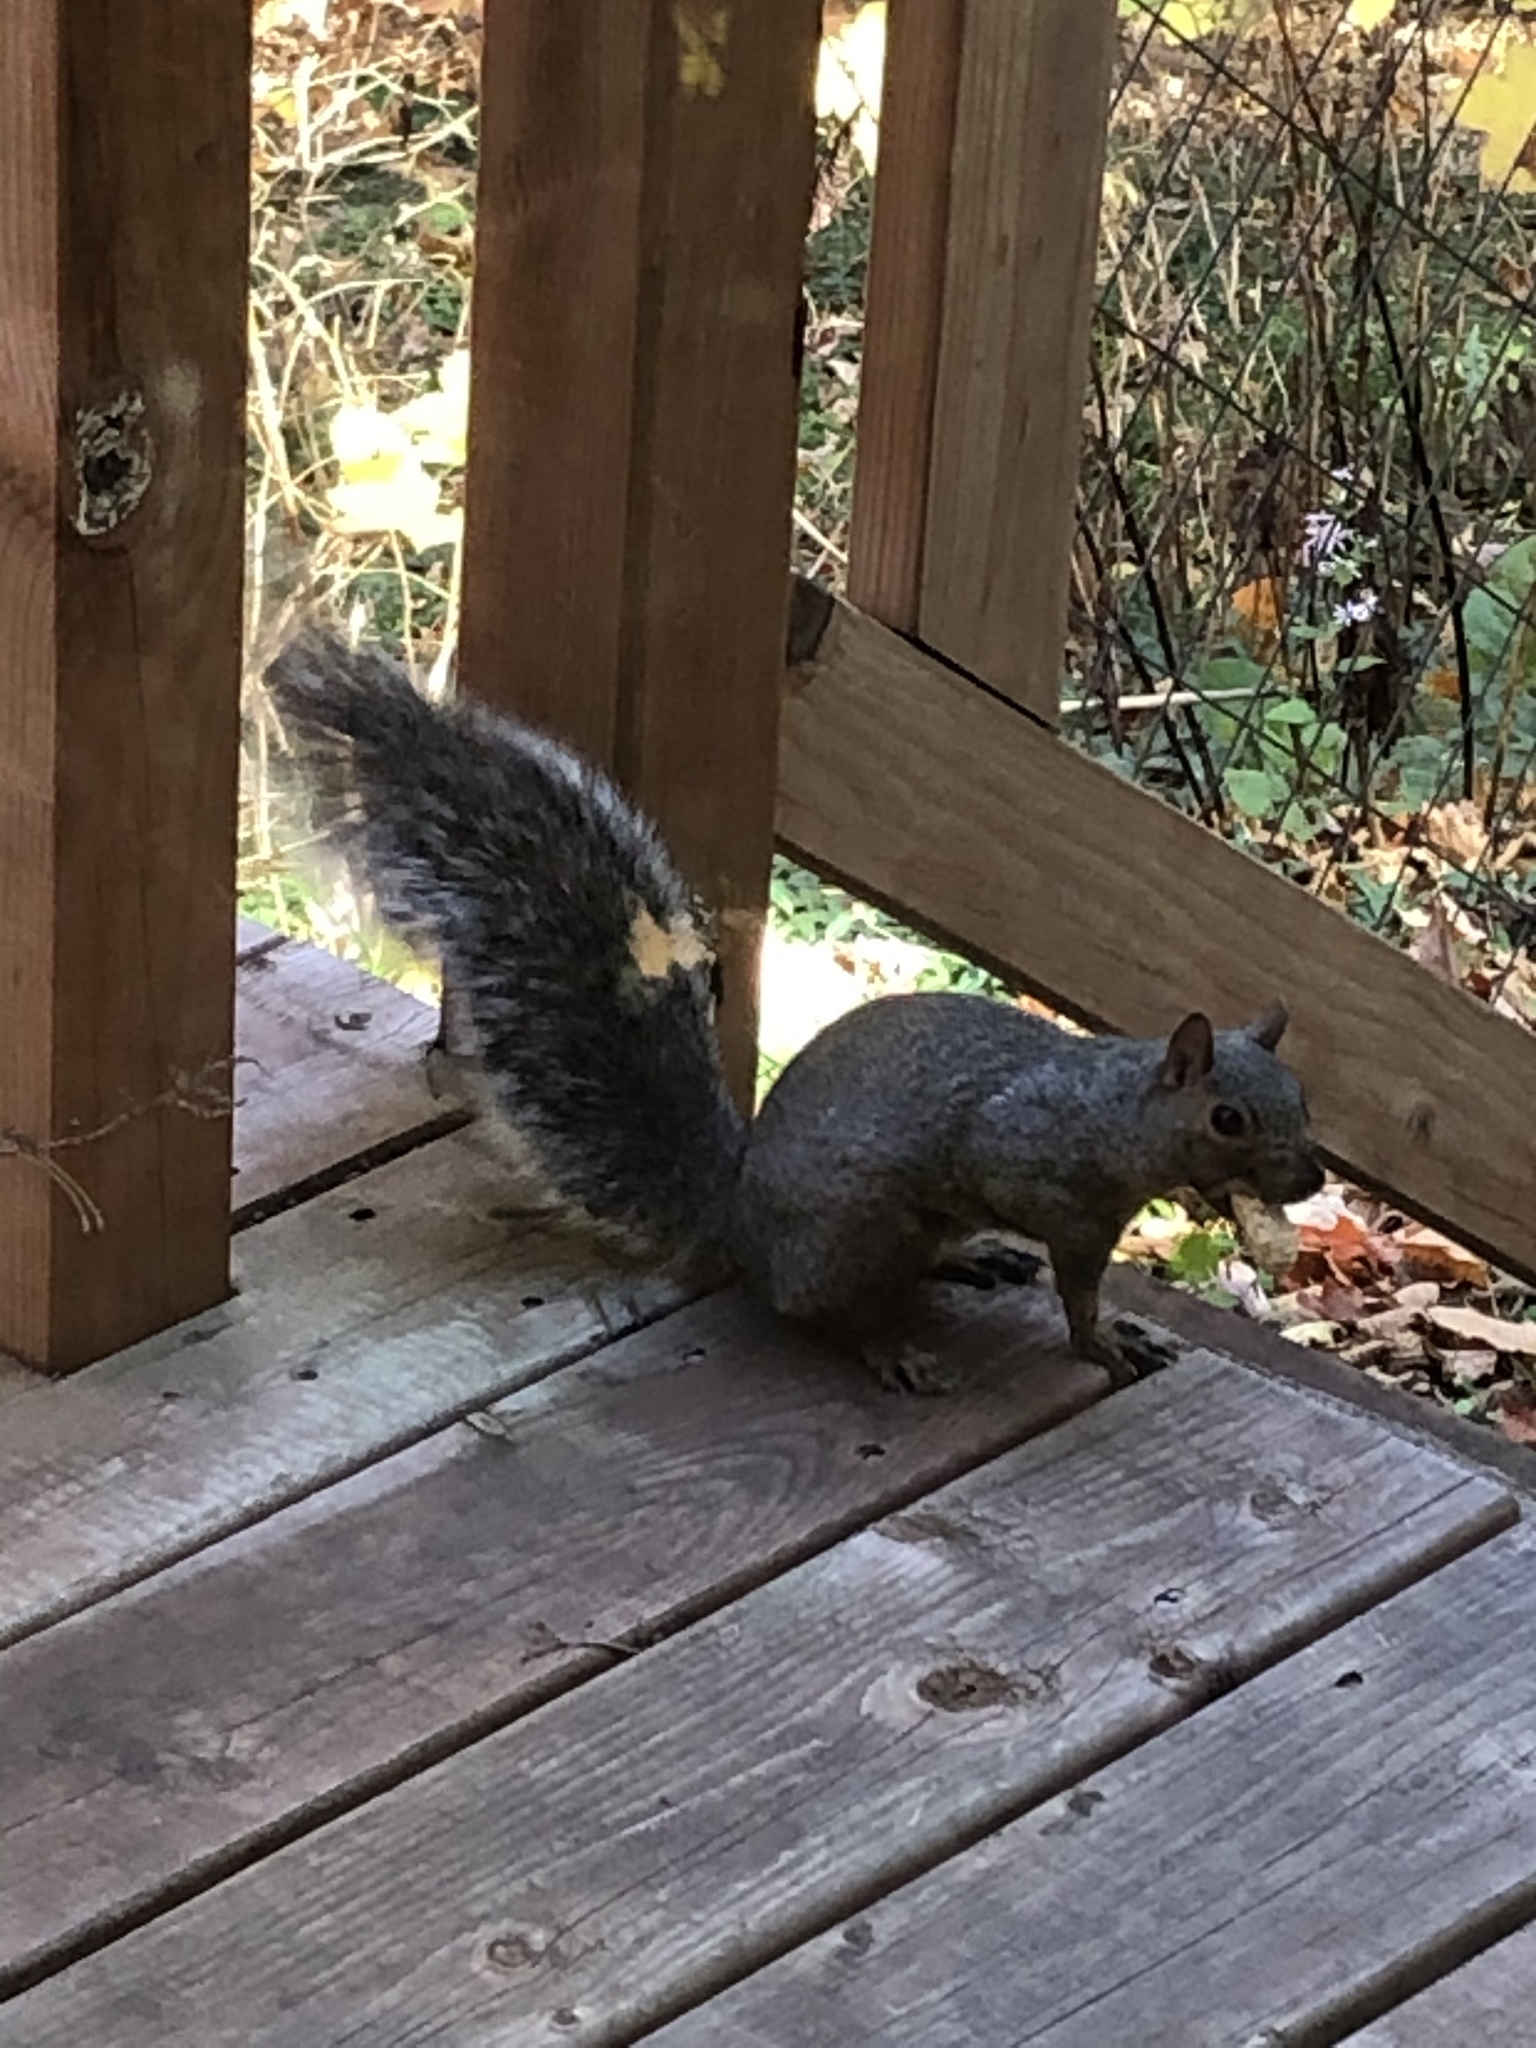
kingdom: Animalia
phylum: Chordata
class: Mammalia
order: Rodentia
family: Sciuridae
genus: Sciurus
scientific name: Sciurus carolinensis
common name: Eastern gray squirrel
